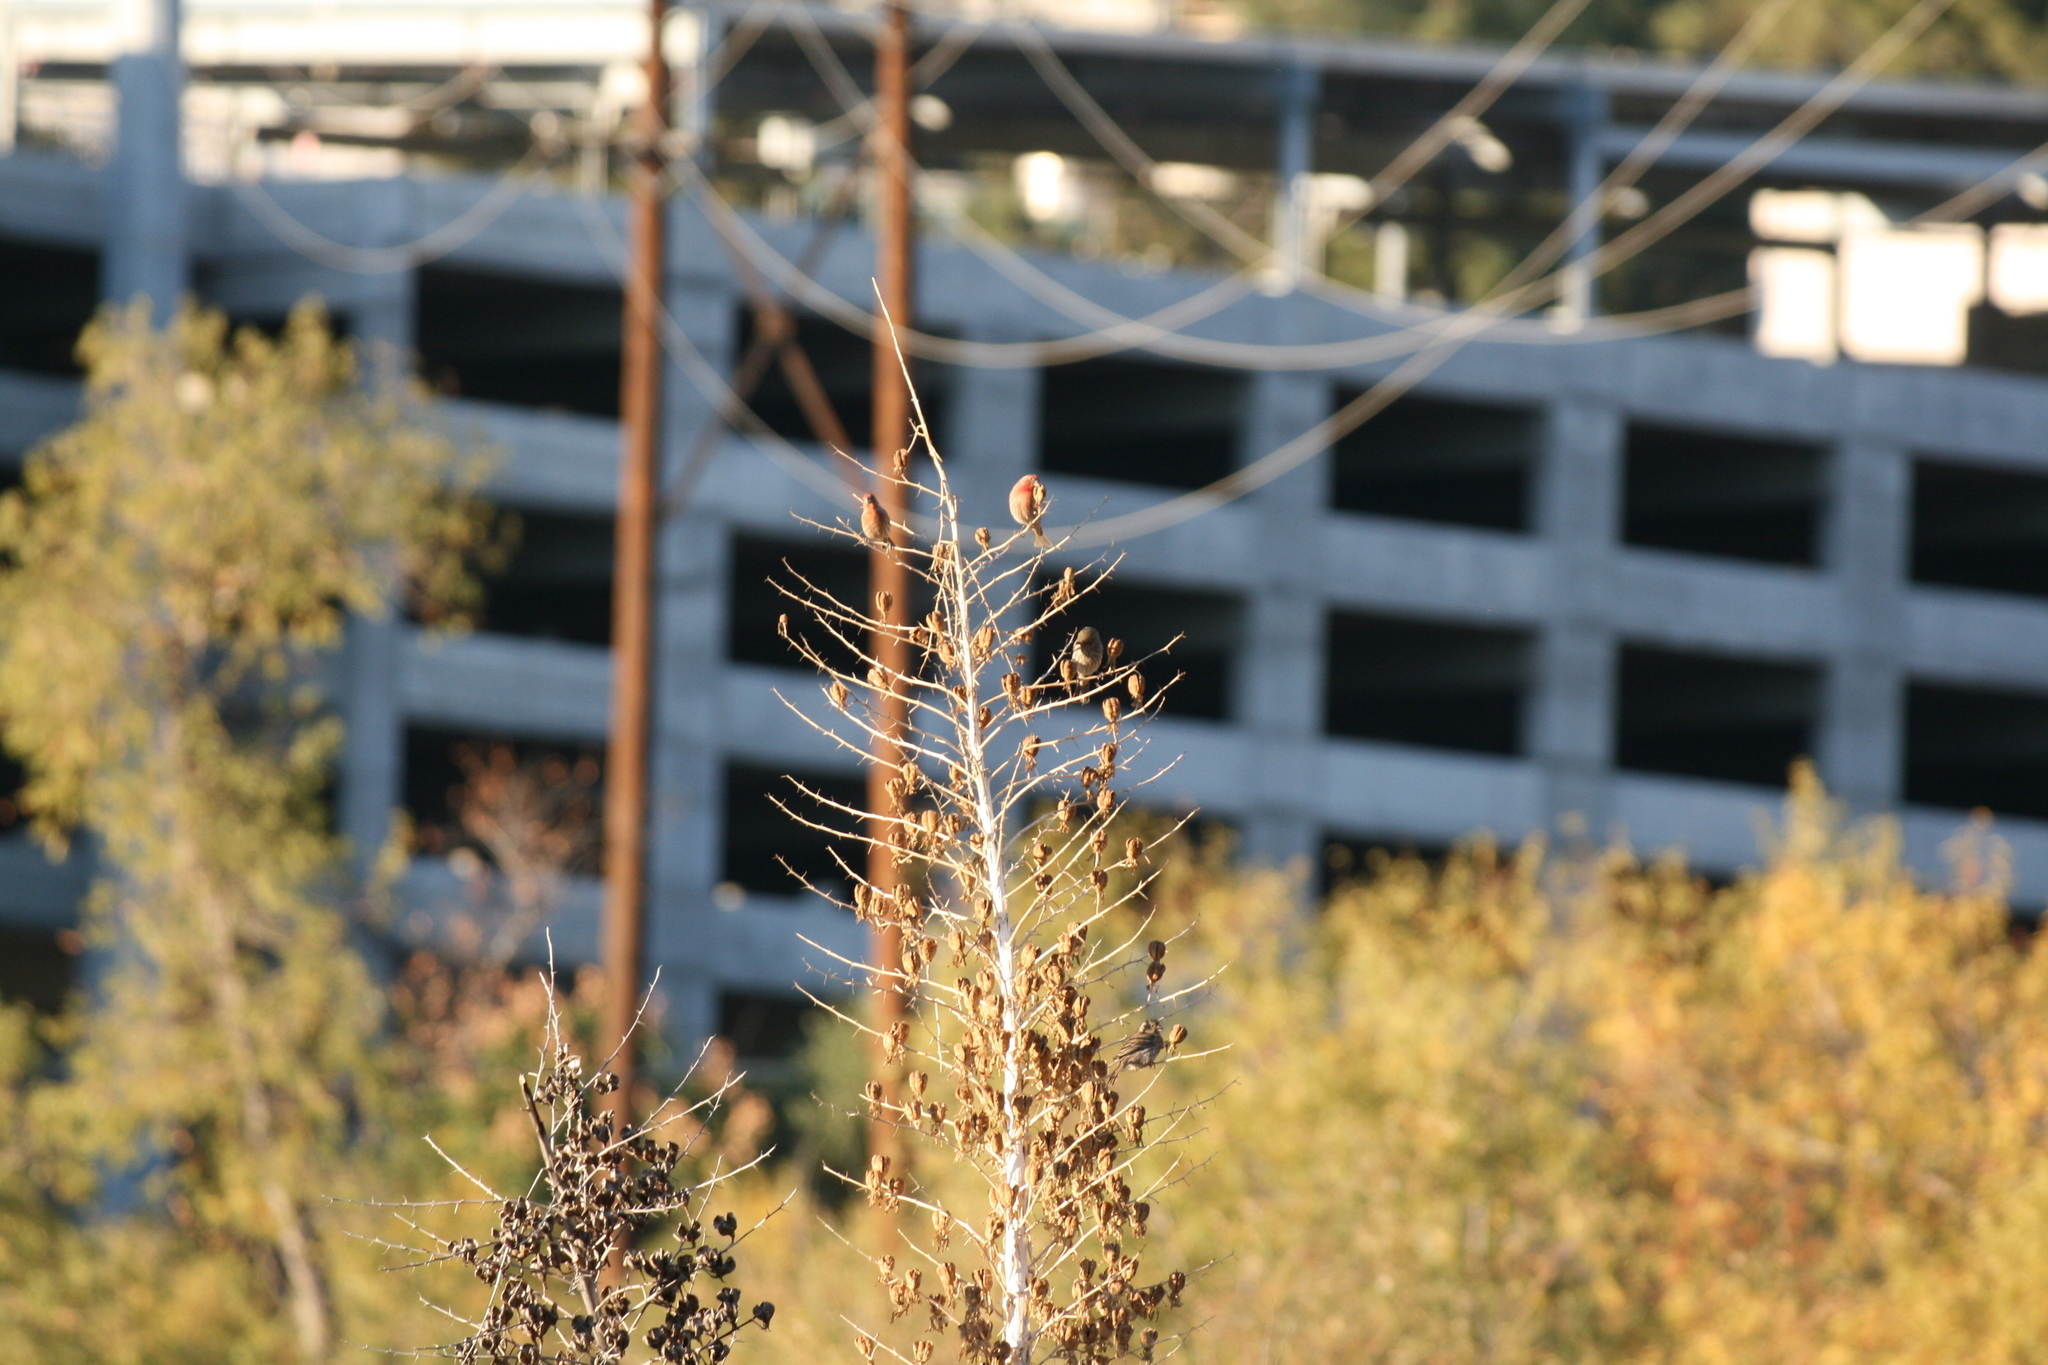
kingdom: Animalia
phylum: Chordata
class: Aves
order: Passeriformes
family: Fringillidae
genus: Haemorhous
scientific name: Haemorhous mexicanus
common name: House finch
